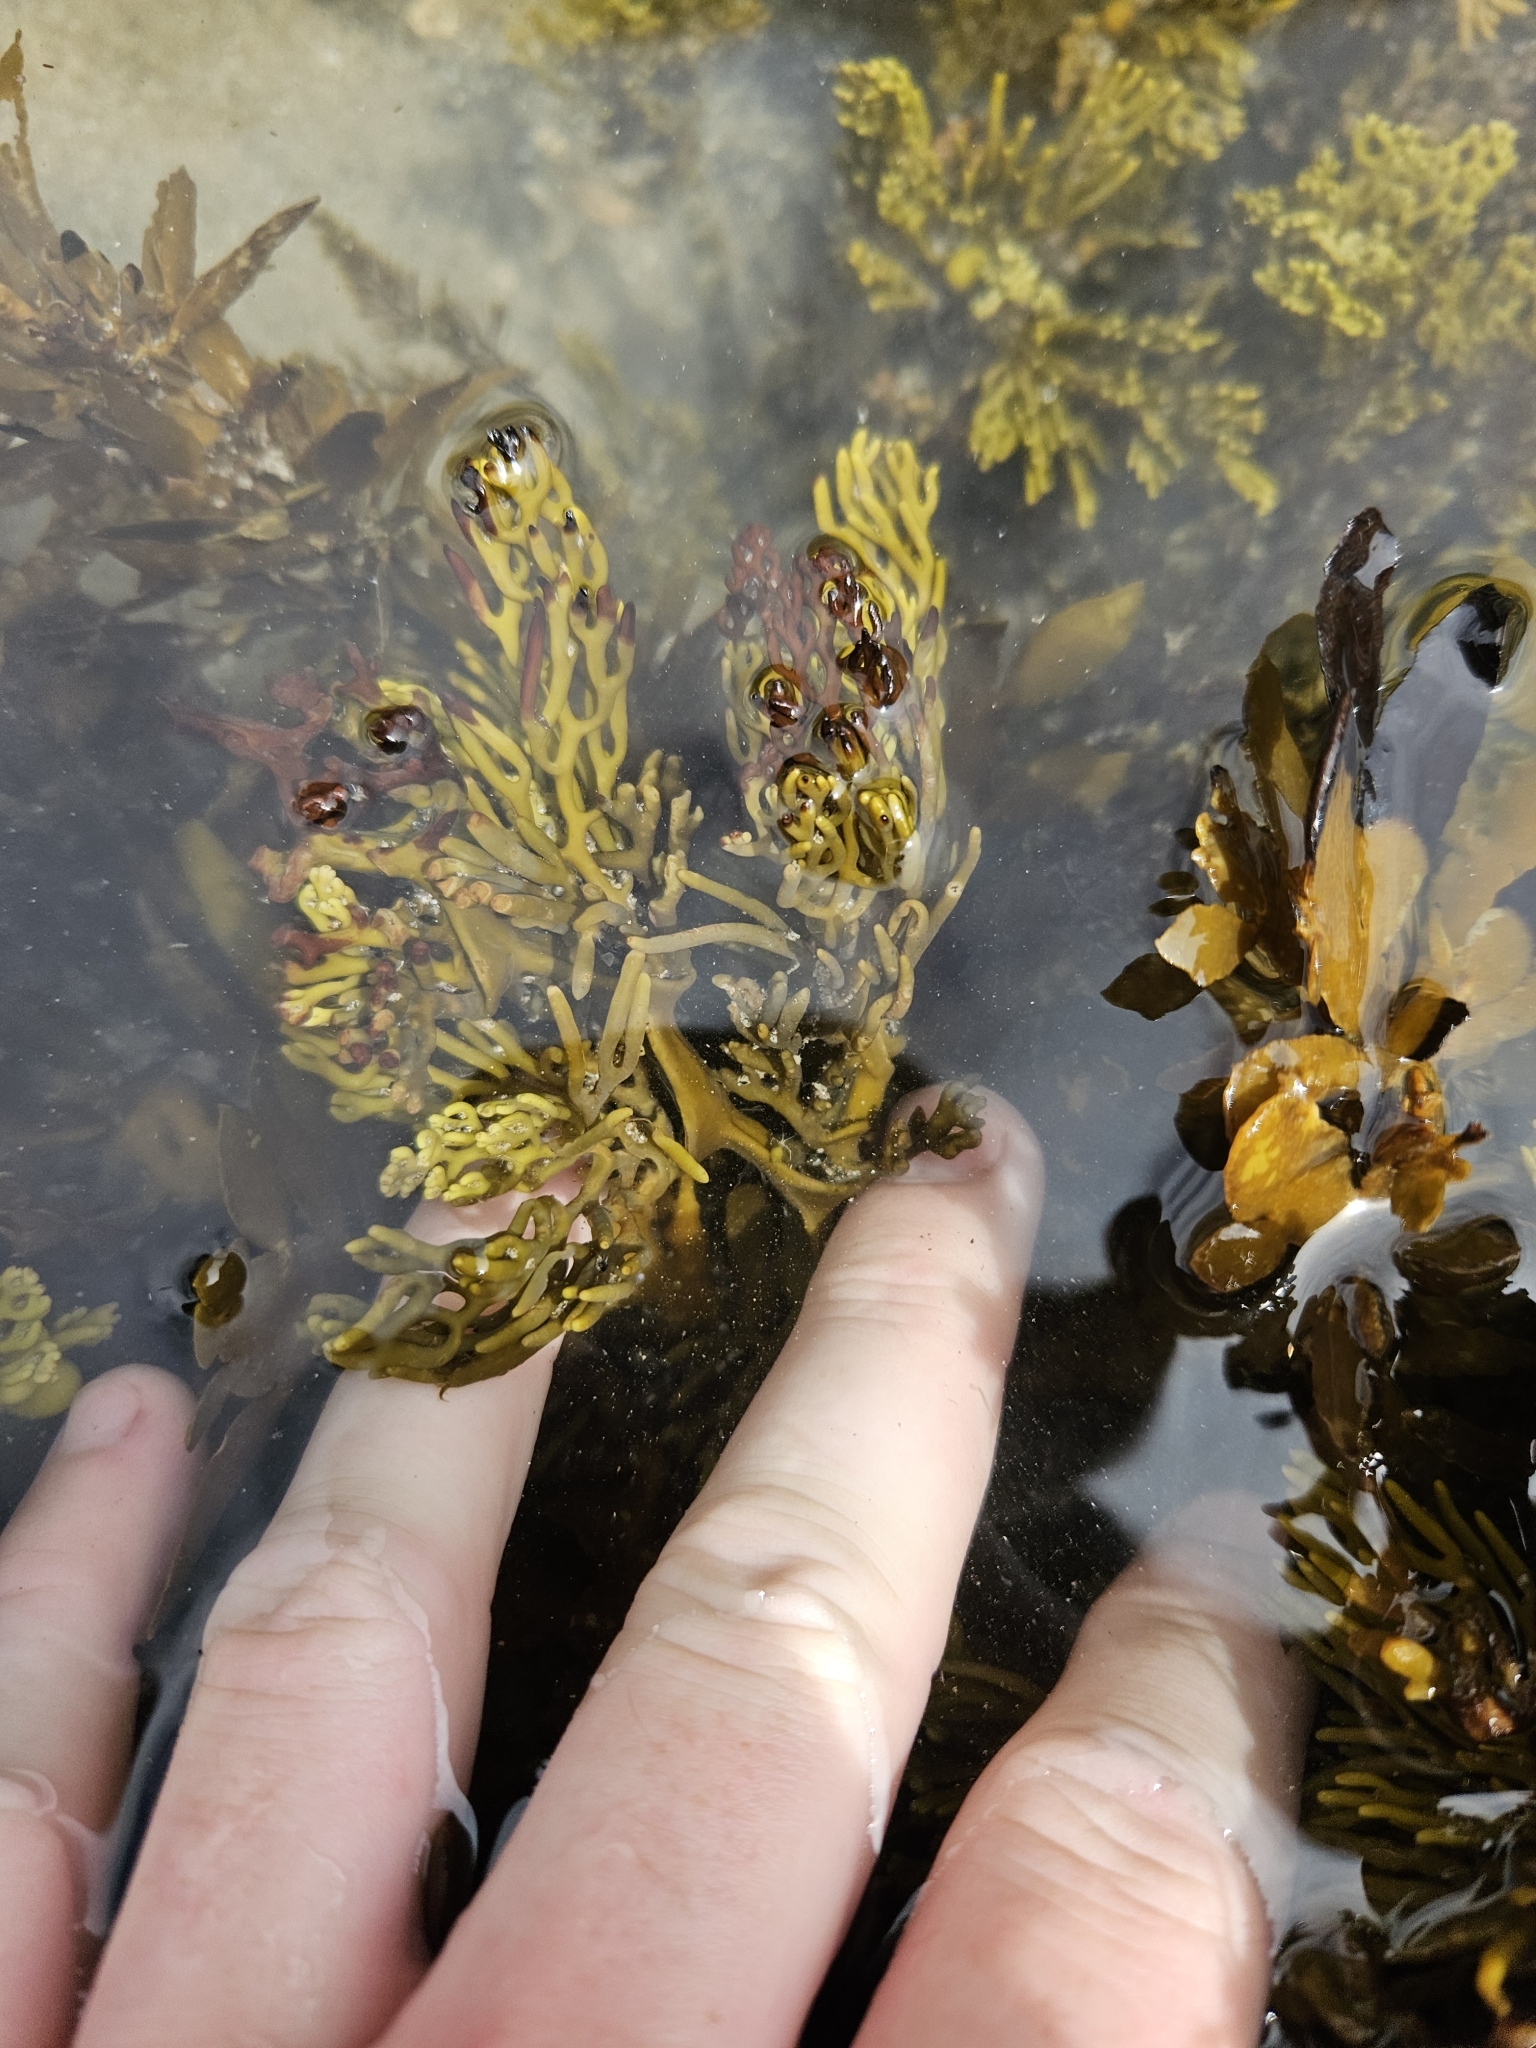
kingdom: Chromista
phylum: Ochrophyta
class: Phaeophyceae
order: Fucales
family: Sargassaceae
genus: Cystophora
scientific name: Cystophora scalaris
